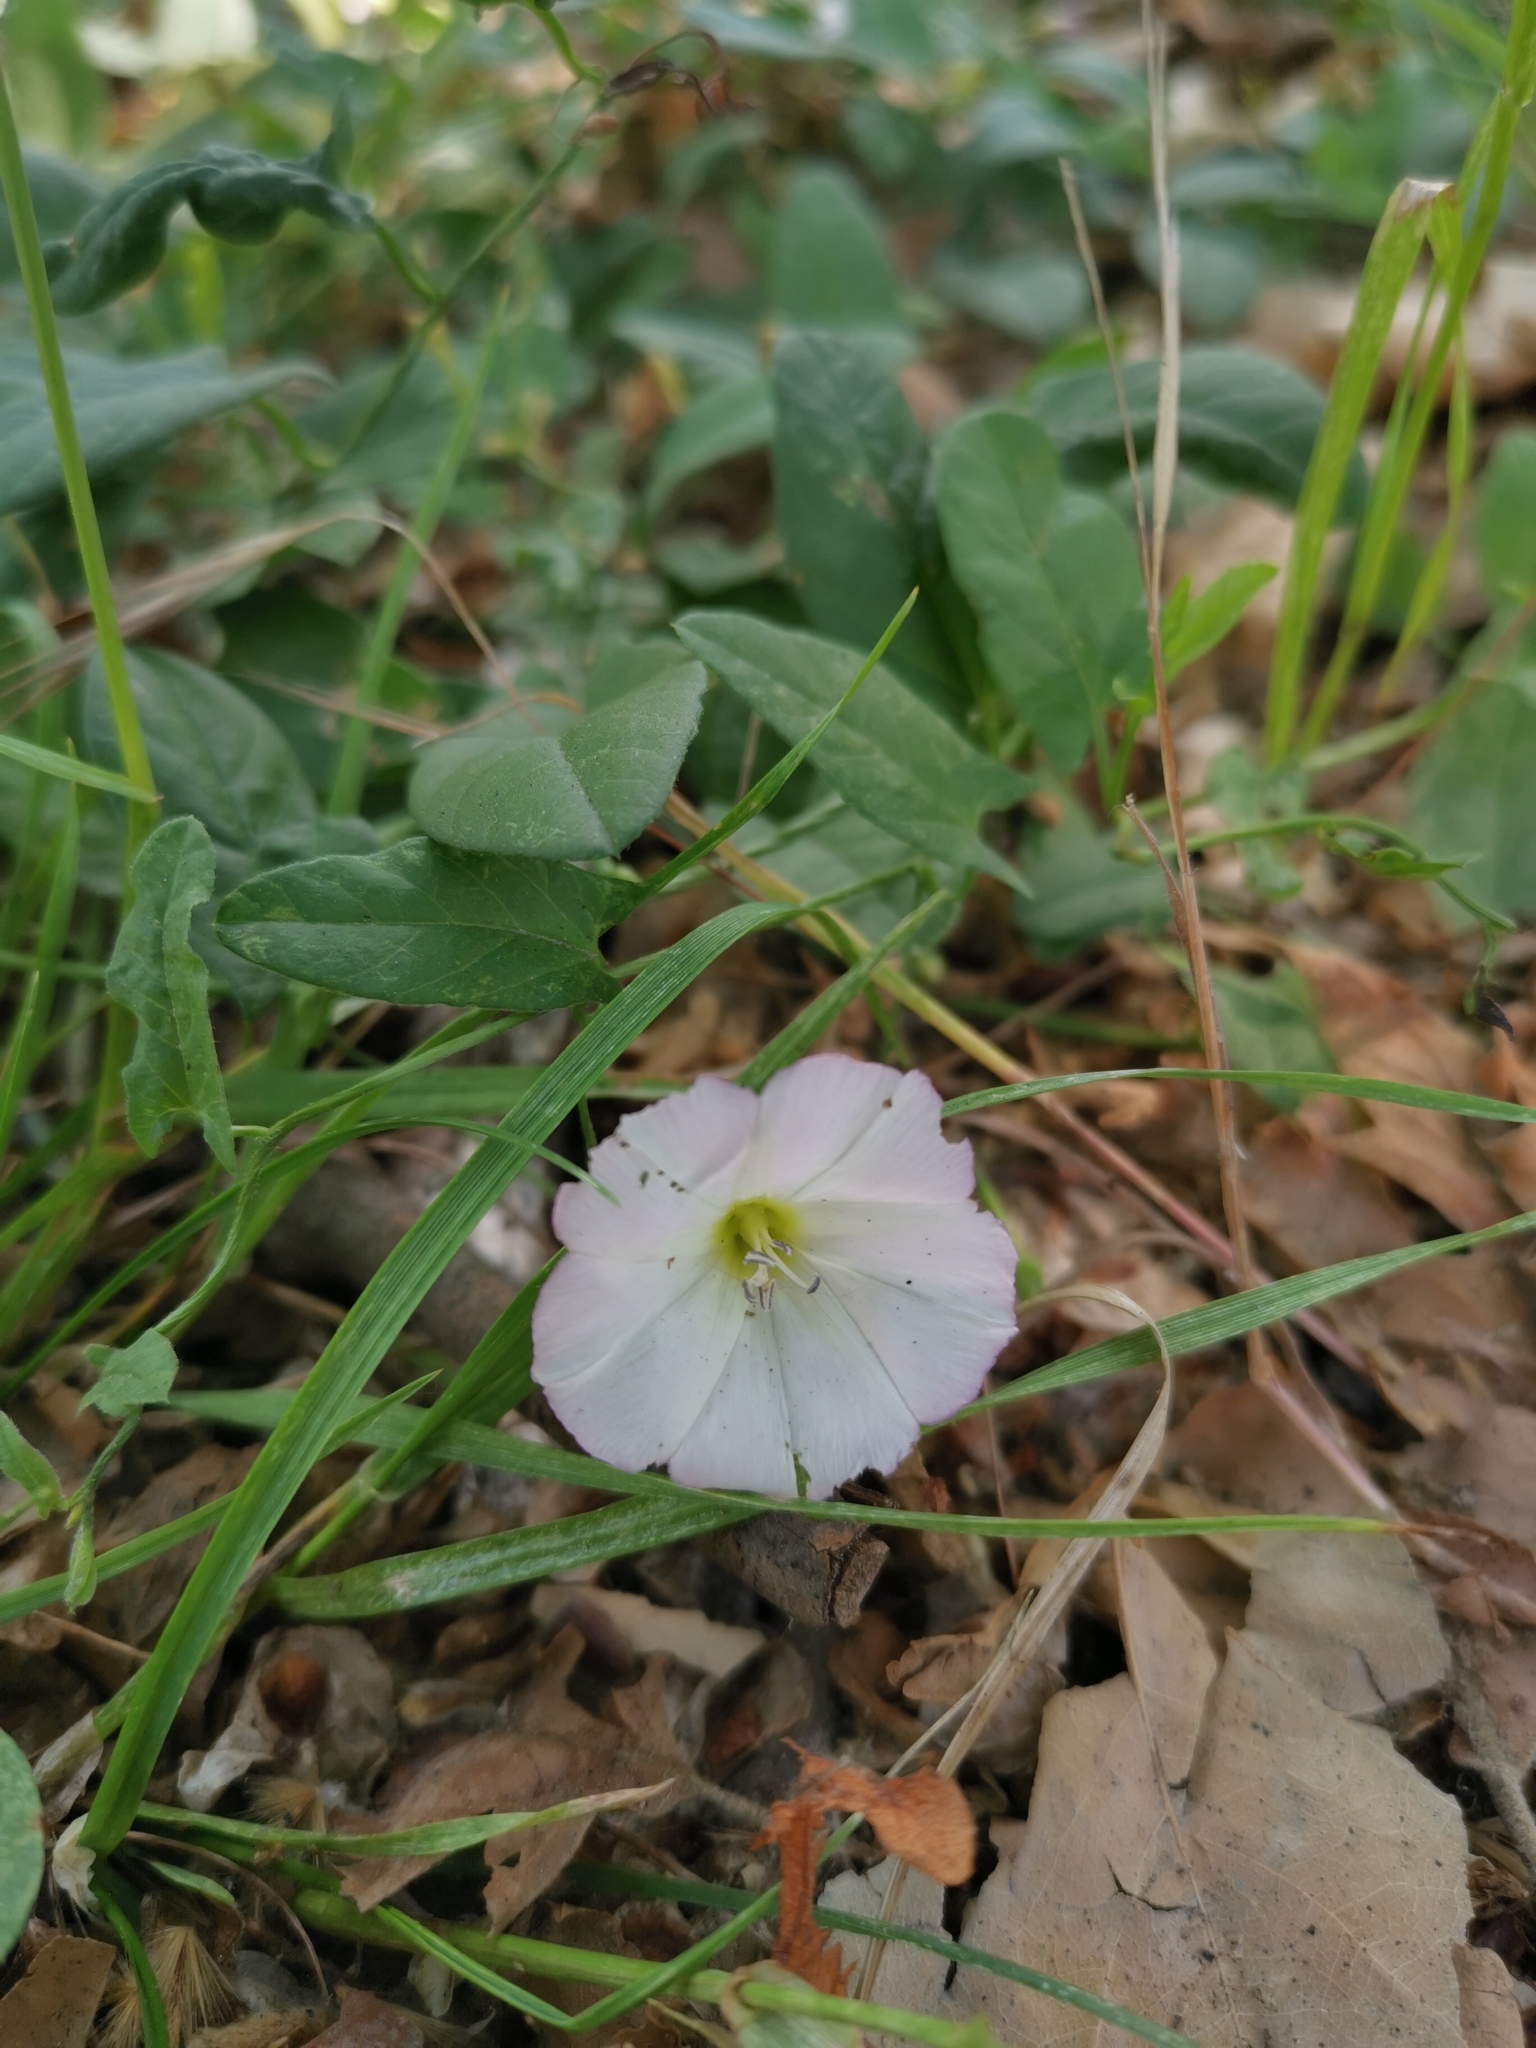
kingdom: Plantae
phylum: Tracheophyta
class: Magnoliopsida
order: Solanales
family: Convolvulaceae
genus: Convolvulus
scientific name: Convolvulus arvensis
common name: Field bindweed
